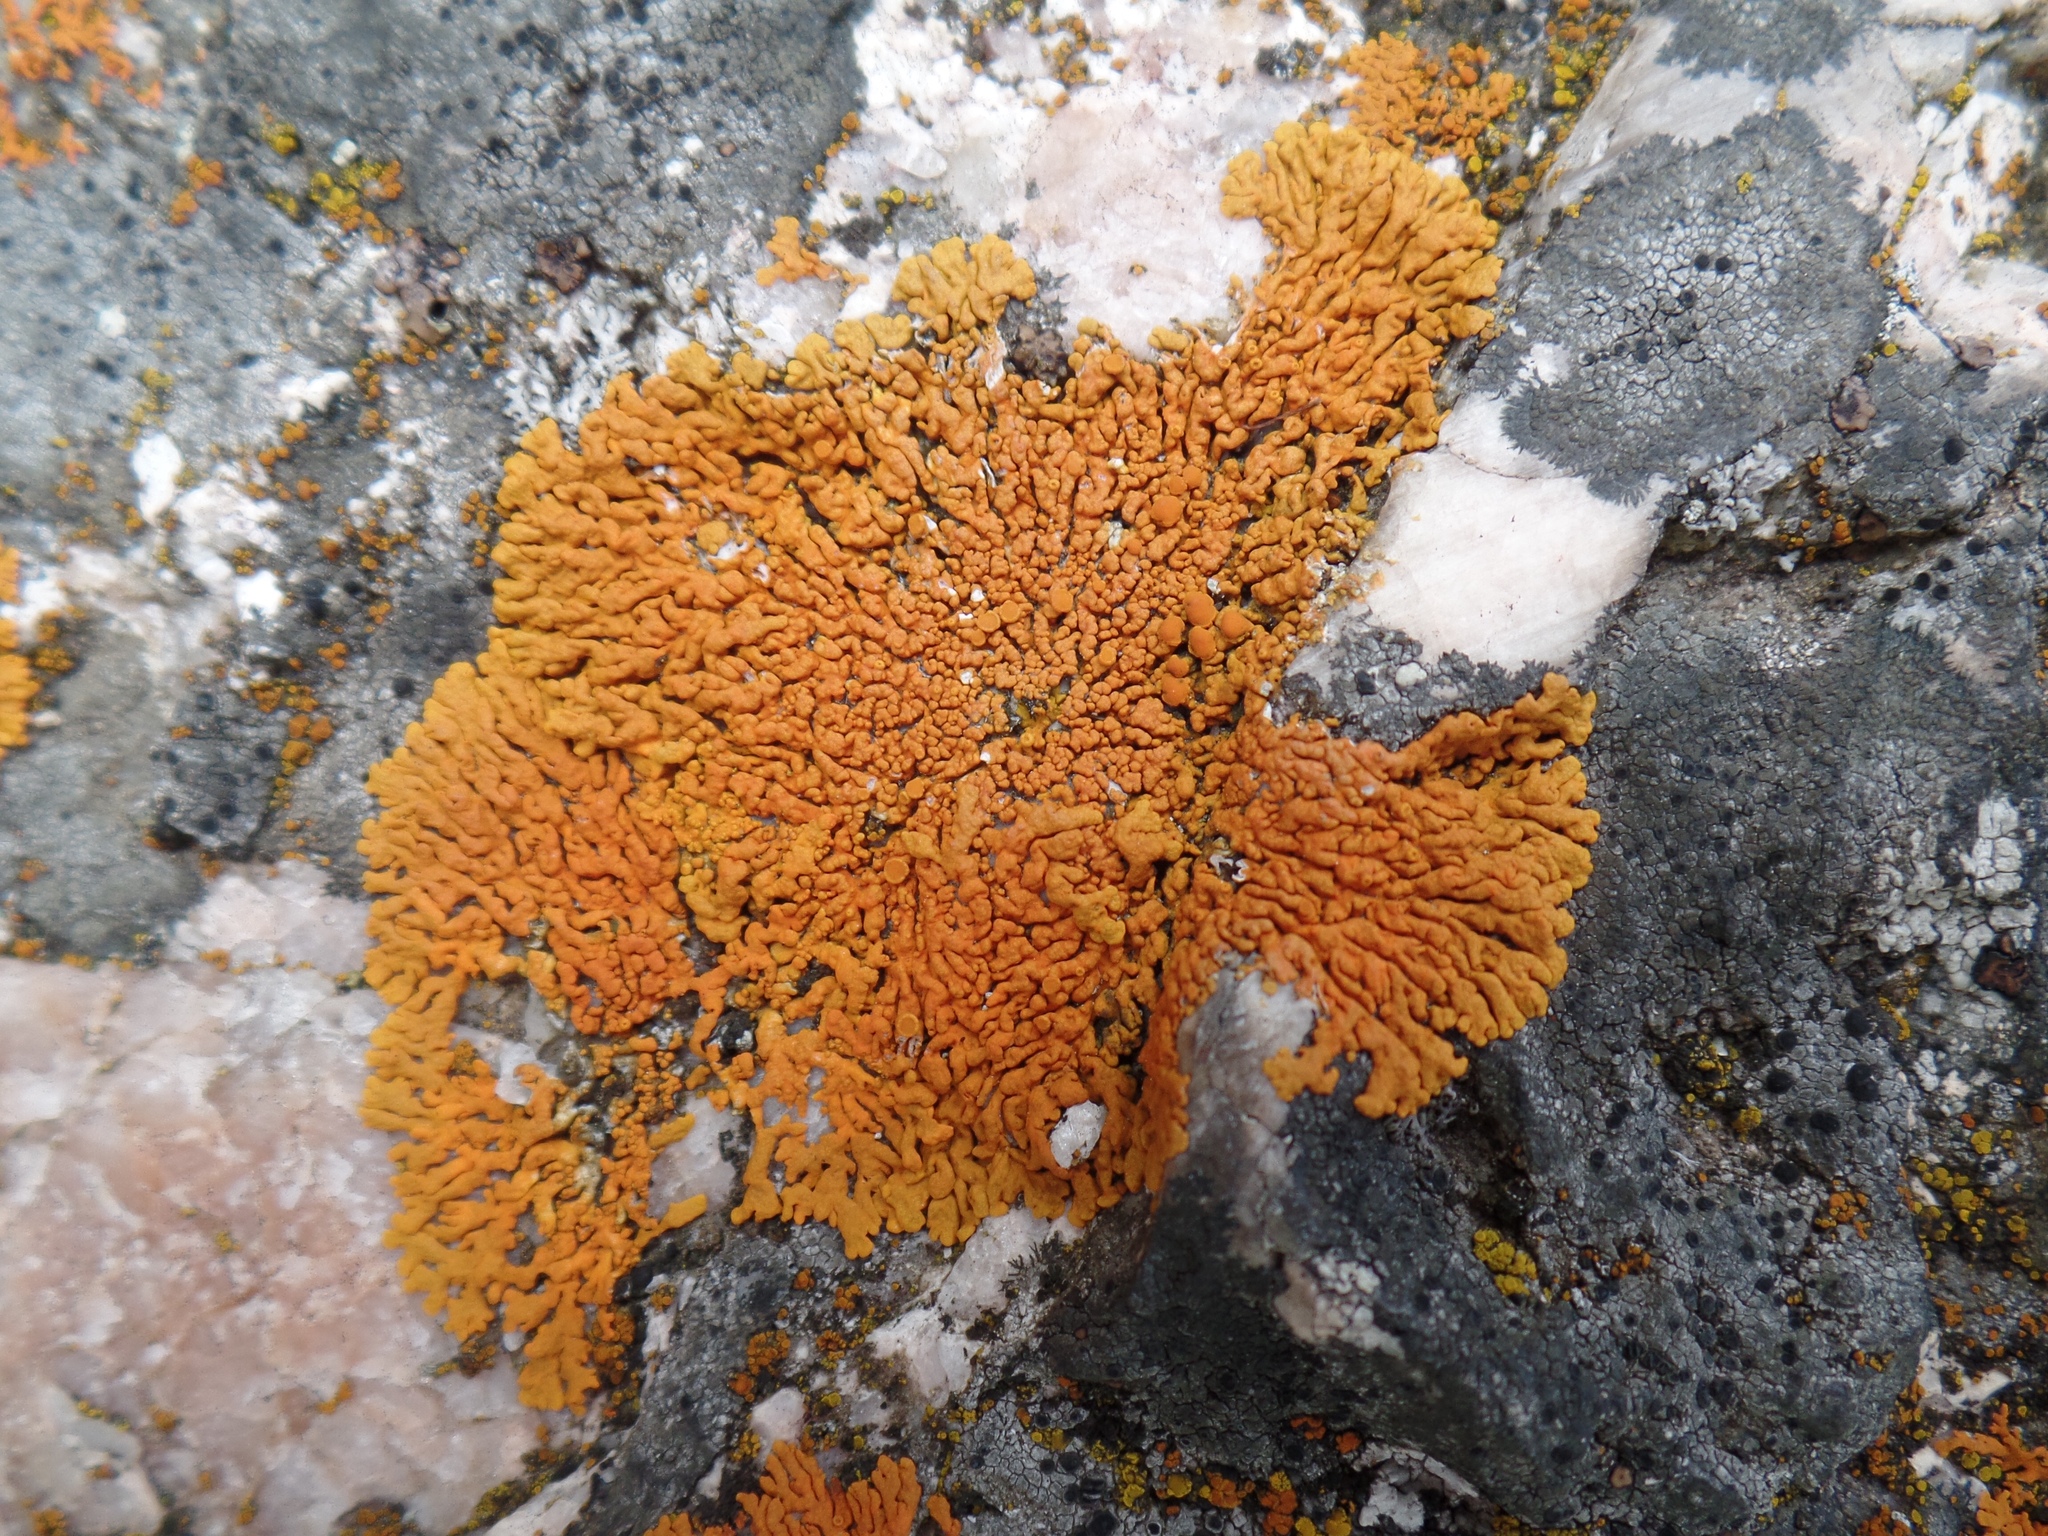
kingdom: Fungi
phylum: Ascomycota
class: Lecanoromycetes
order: Teloschistales
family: Teloschistaceae
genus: Xanthoria
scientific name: Xanthoria elegans
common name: Elegant sunburst lichen
